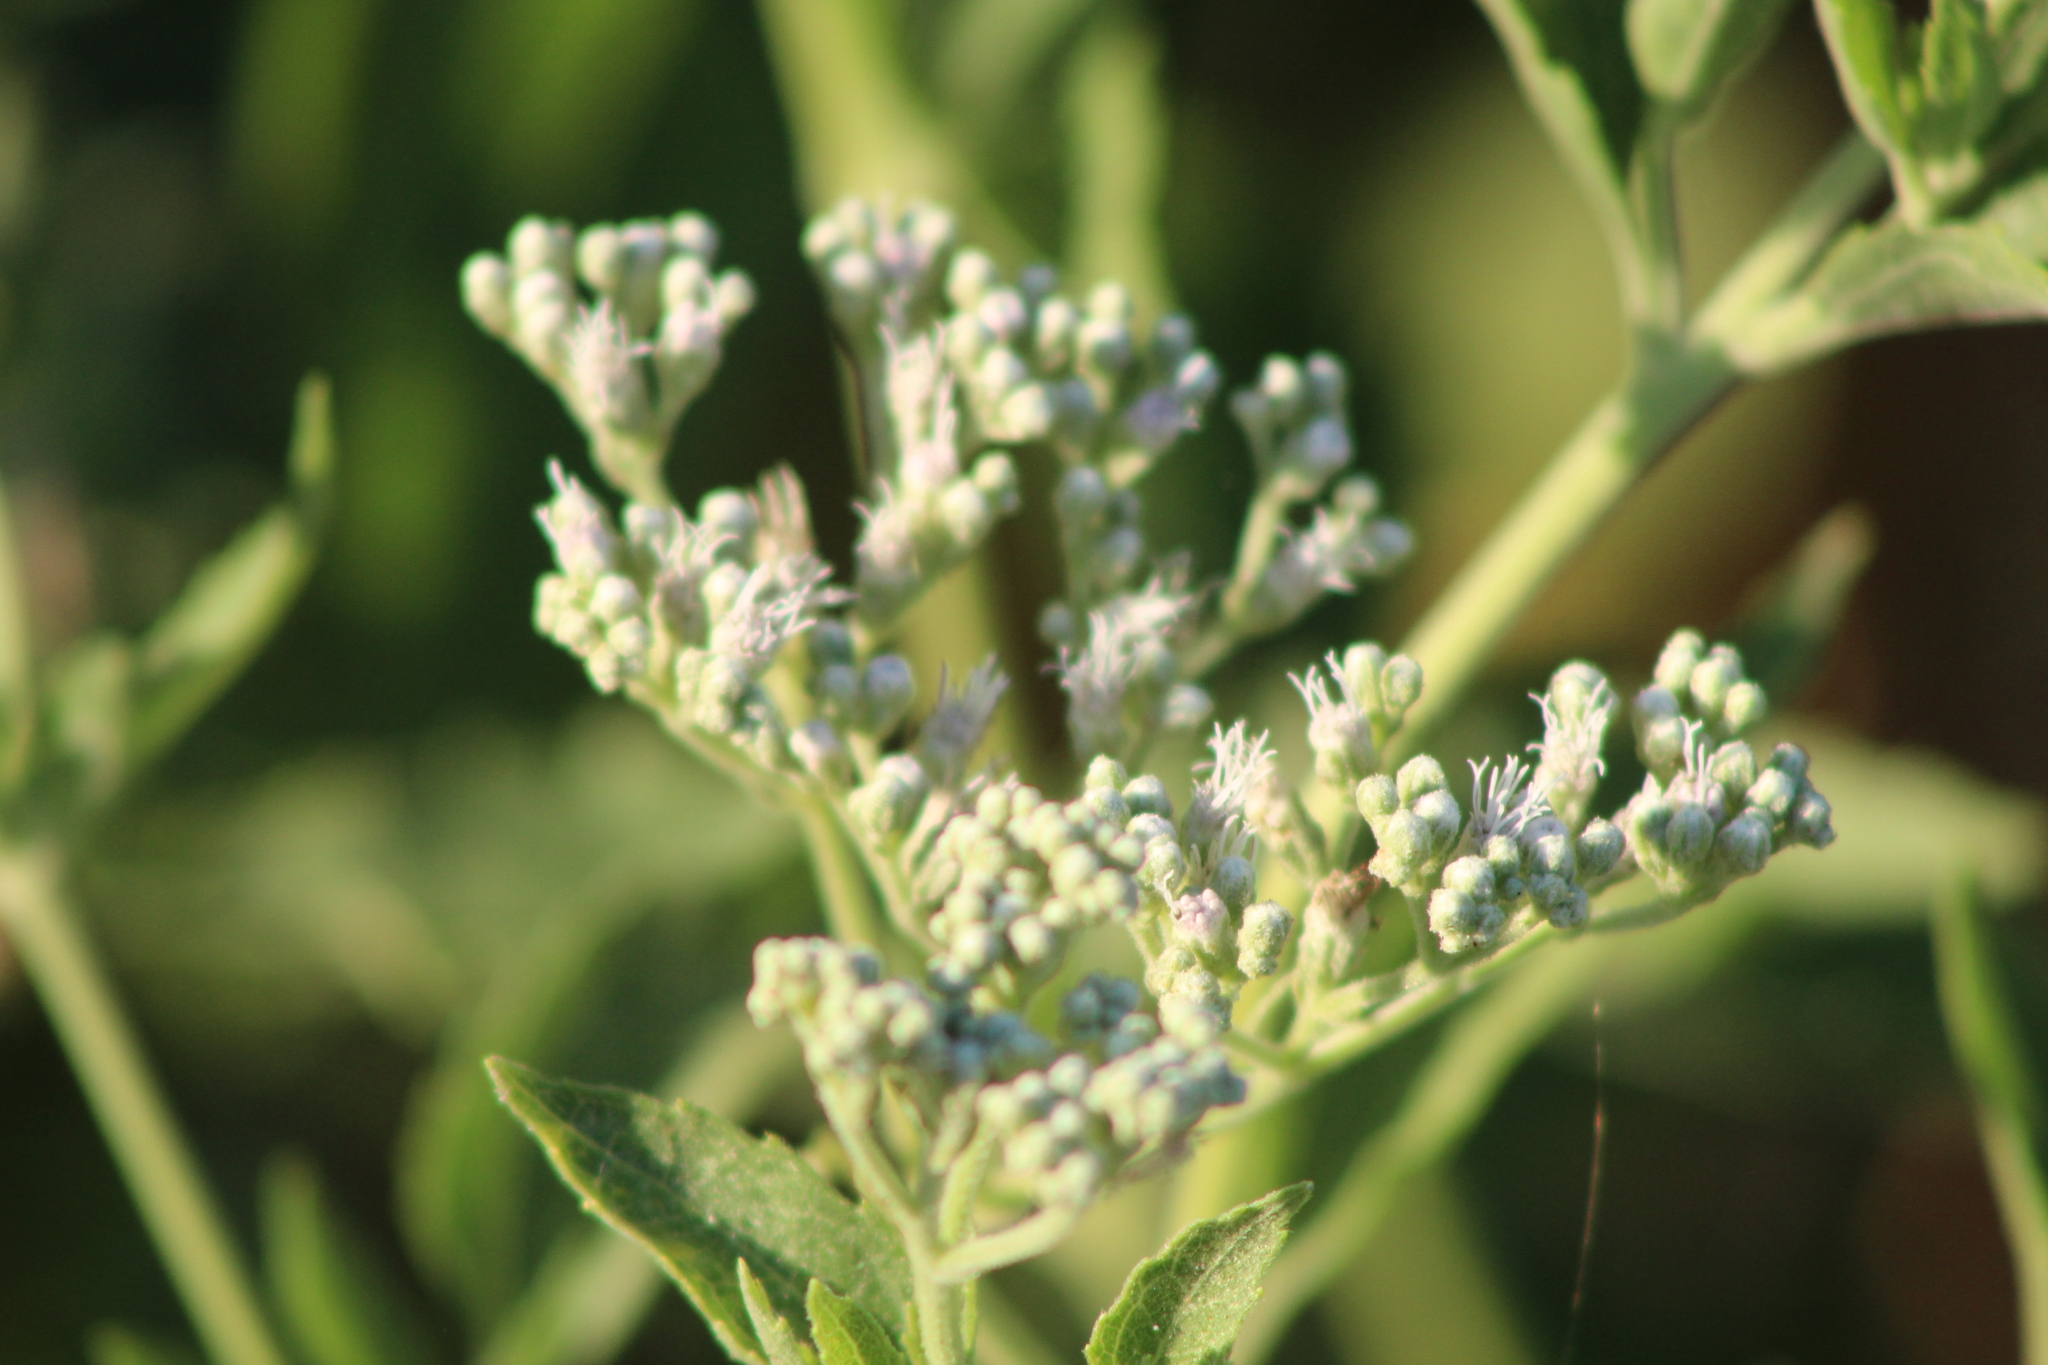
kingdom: Plantae
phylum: Tracheophyta
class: Magnoliopsida
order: Asterales
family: Asteraceae
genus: Eupatorium
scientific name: Eupatorium serotinum
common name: Late boneset
